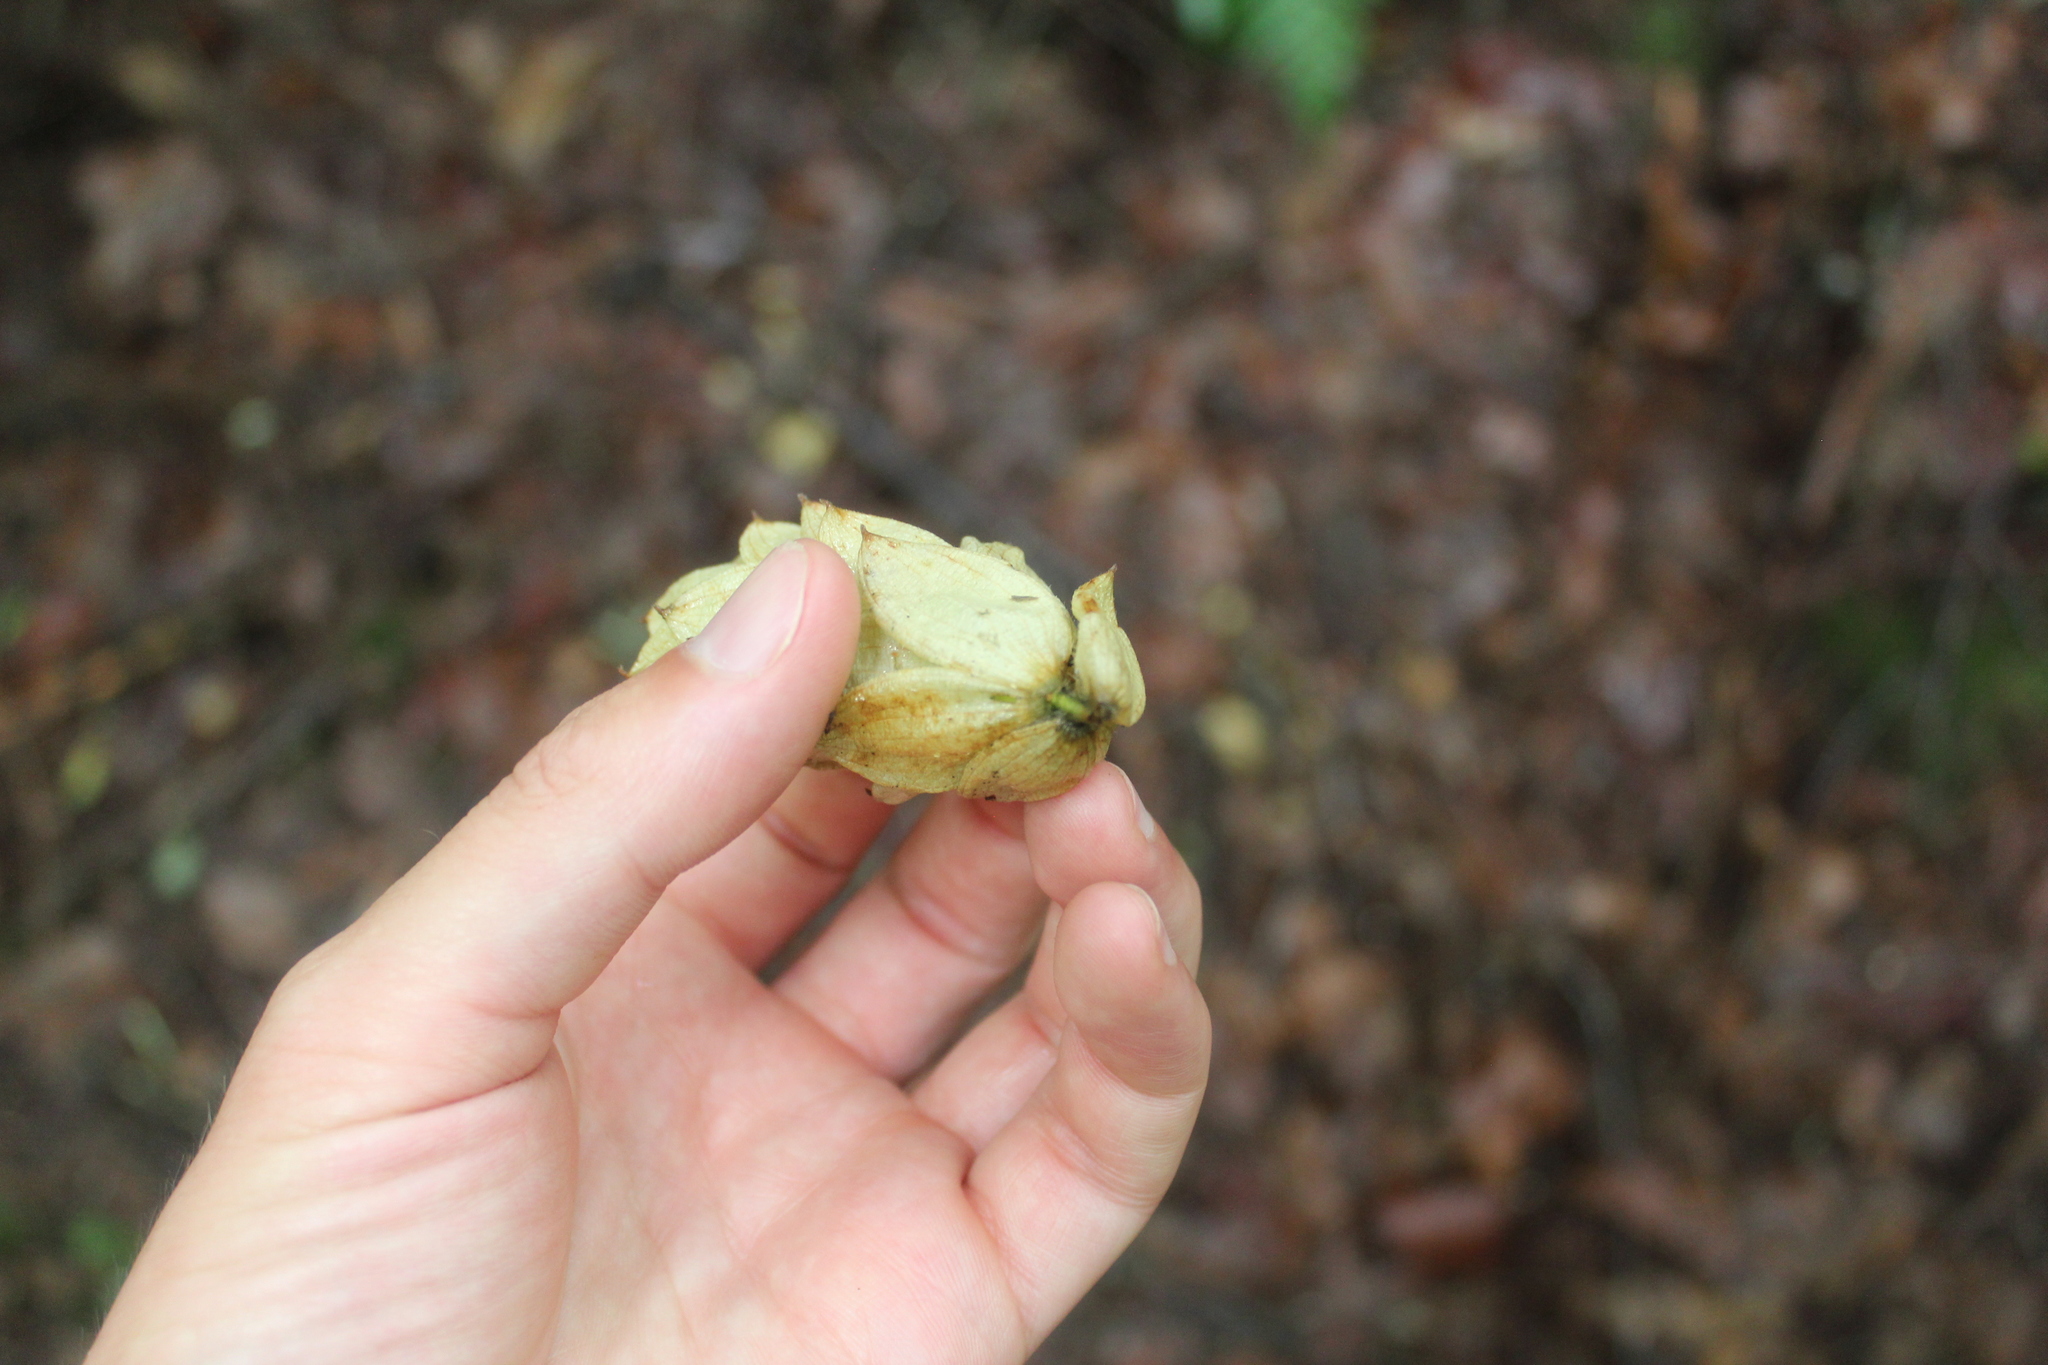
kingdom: Plantae
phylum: Tracheophyta
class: Magnoliopsida
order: Fagales
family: Betulaceae
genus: Ostrya
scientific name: Ostrya virginiana
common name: Ironwood
